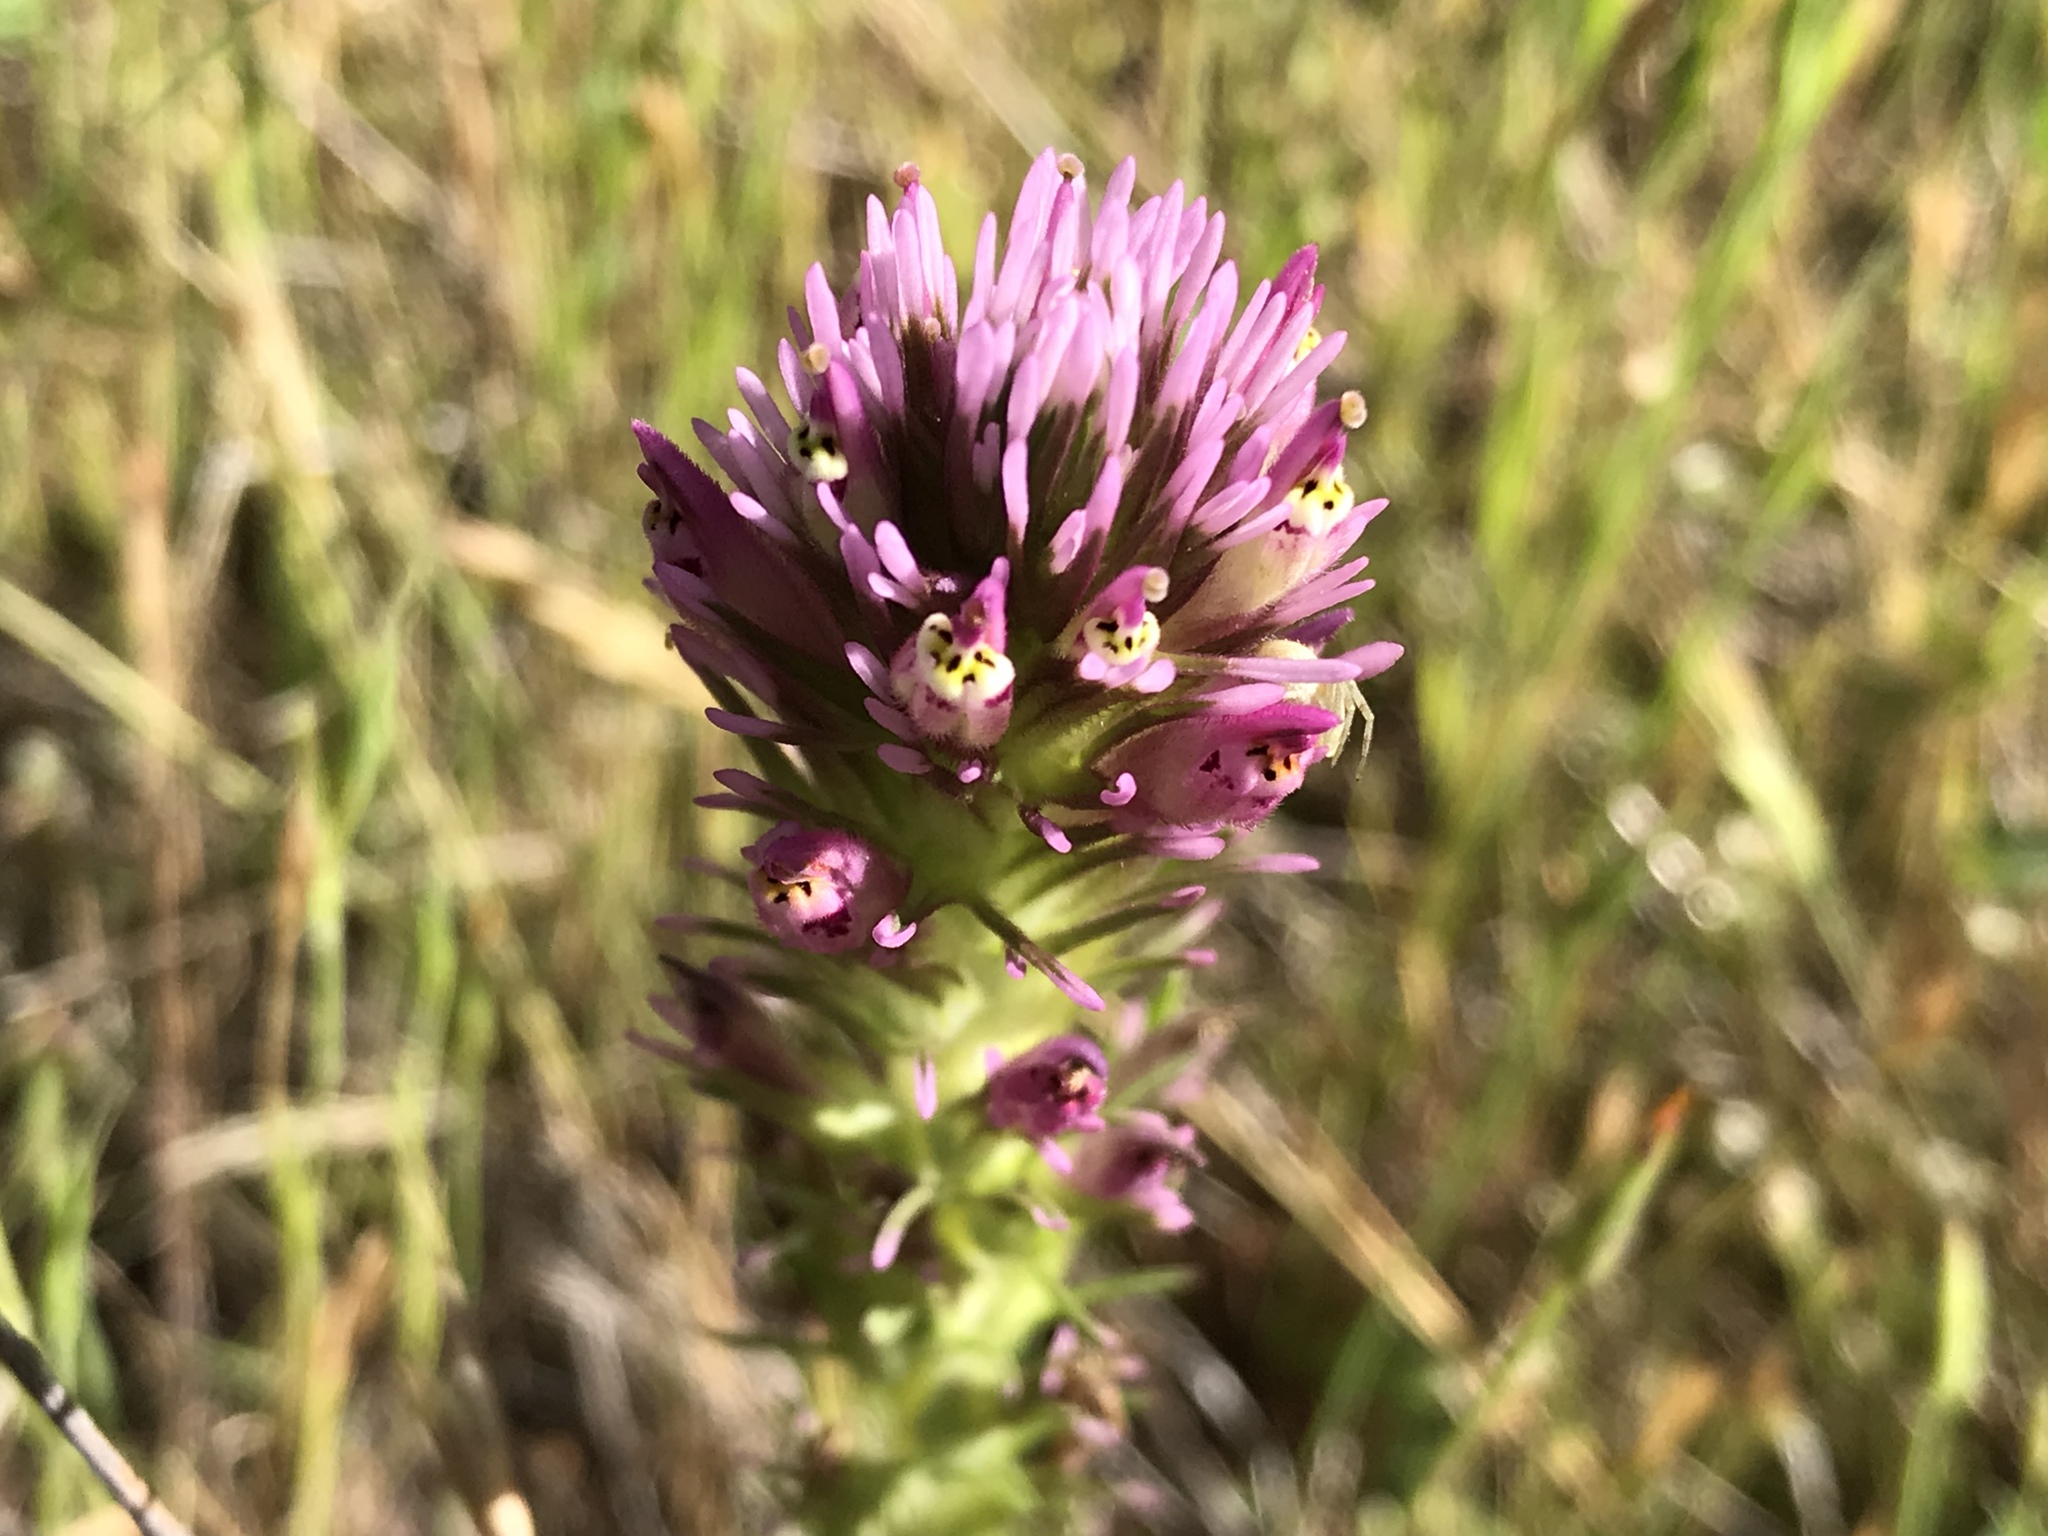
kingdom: Plantae
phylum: Tracheophyta
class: Magnoliopsida
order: Lamiales
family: Orobanchaceae
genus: Castilleja
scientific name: Castilleja densiflora
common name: Dense-flower indian paintbrush
